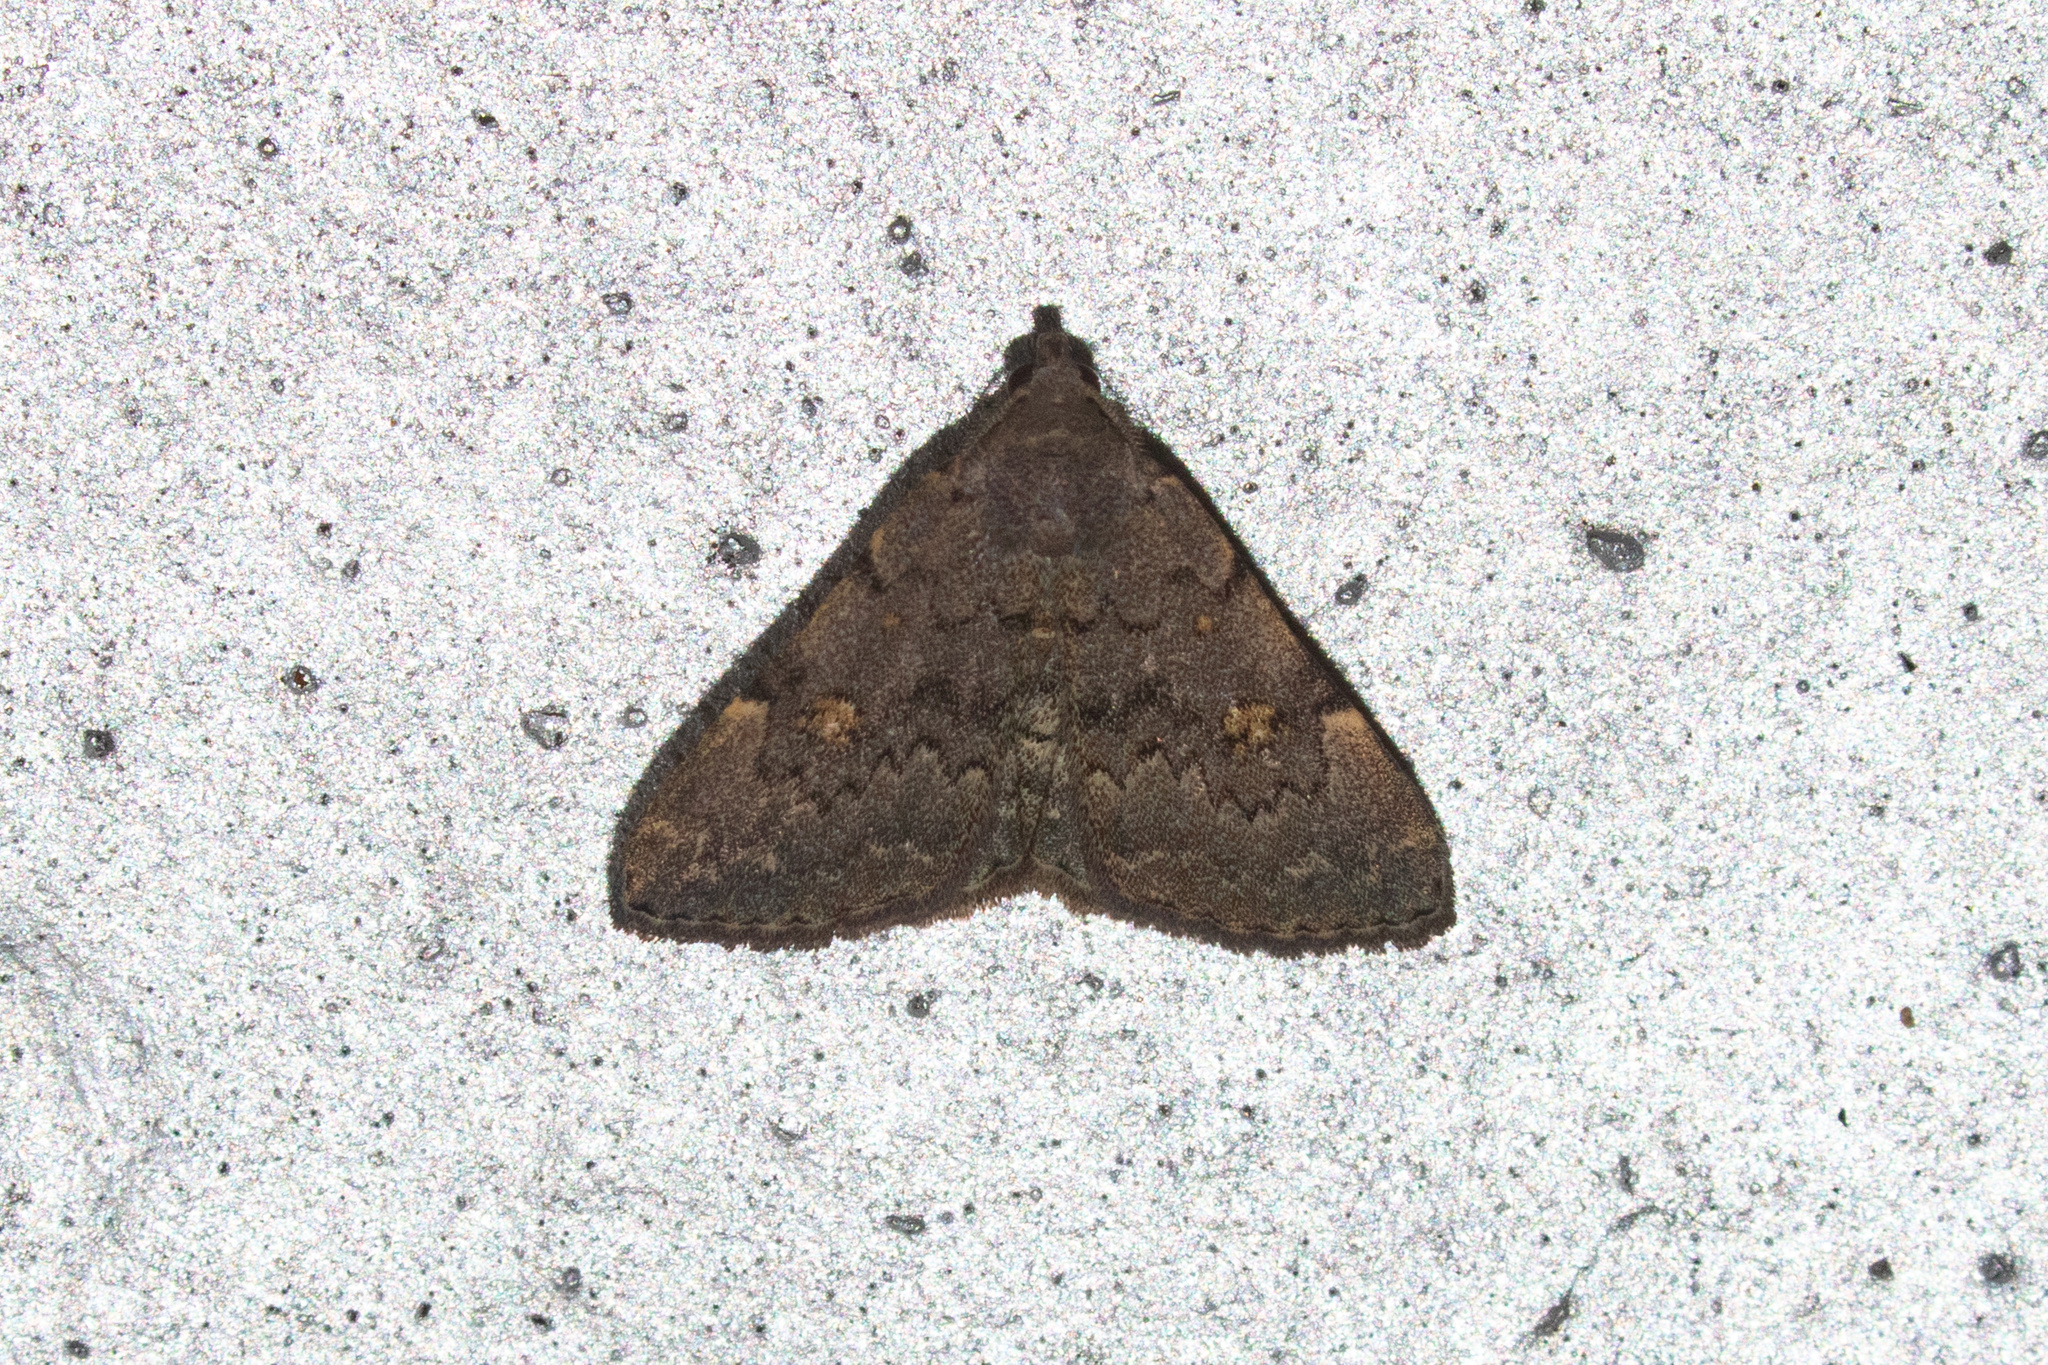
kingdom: Animalia
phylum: Arthropoda
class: Insecta
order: Lepidoptera
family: Erebidae
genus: Idia
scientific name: Idia aemula
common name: Common idia moth
